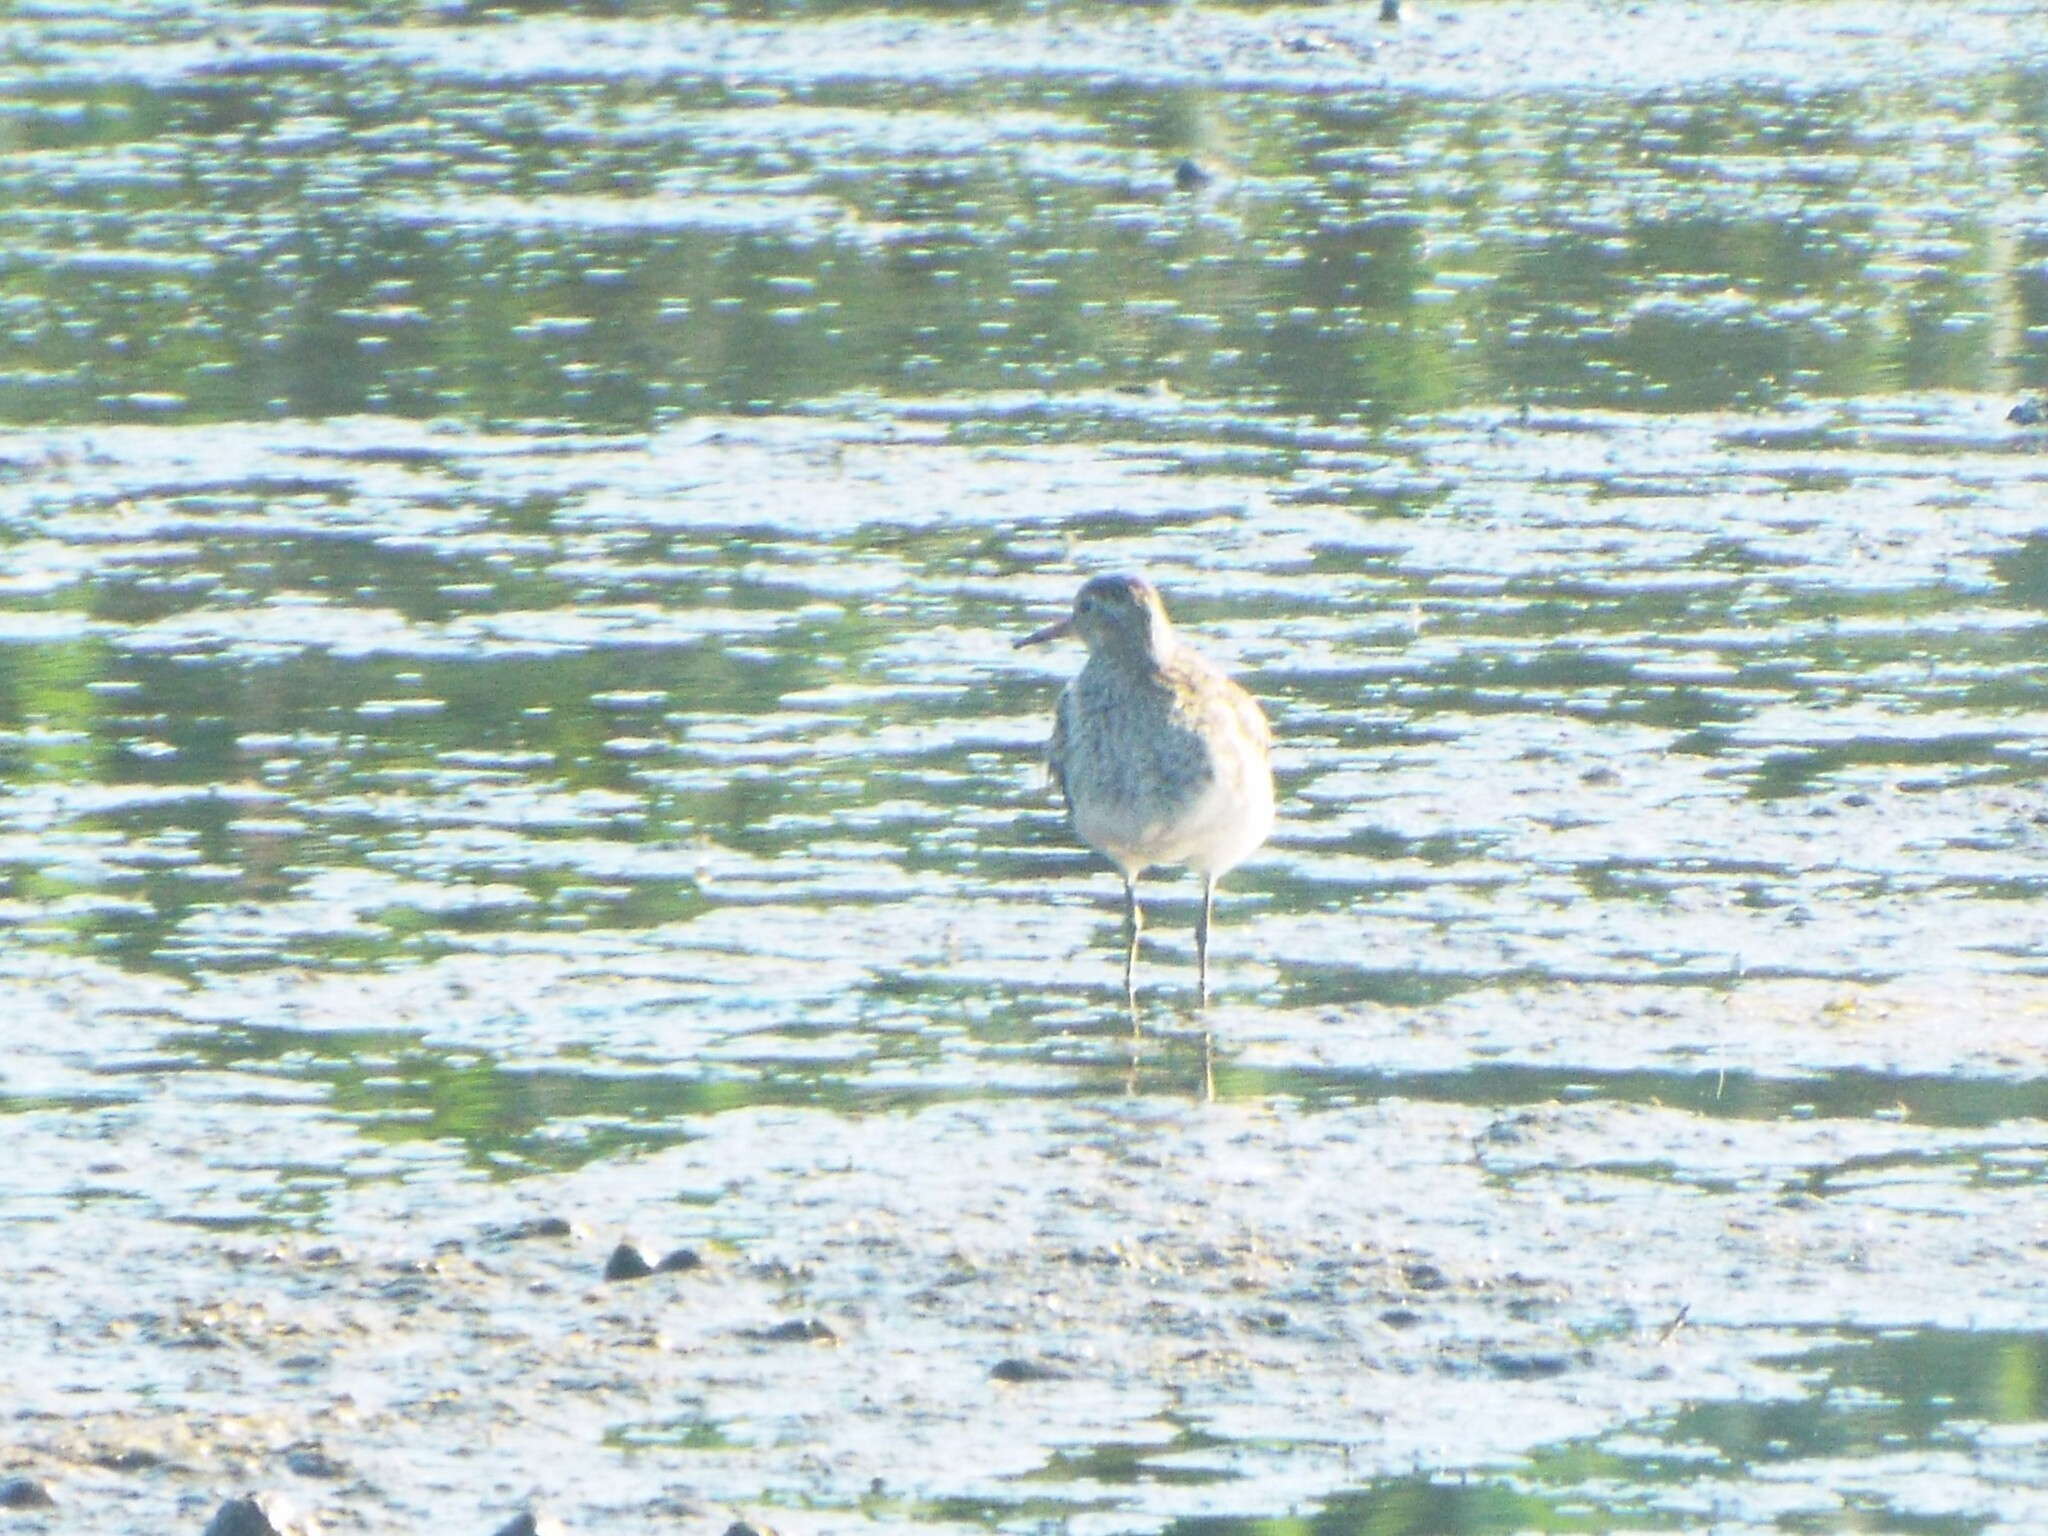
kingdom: Animalia
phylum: Chordata
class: Aves
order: Charadriiformes
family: Scolopacidae
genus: Calidris
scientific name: Calidris melanotos
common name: Pectoral sandpiper
